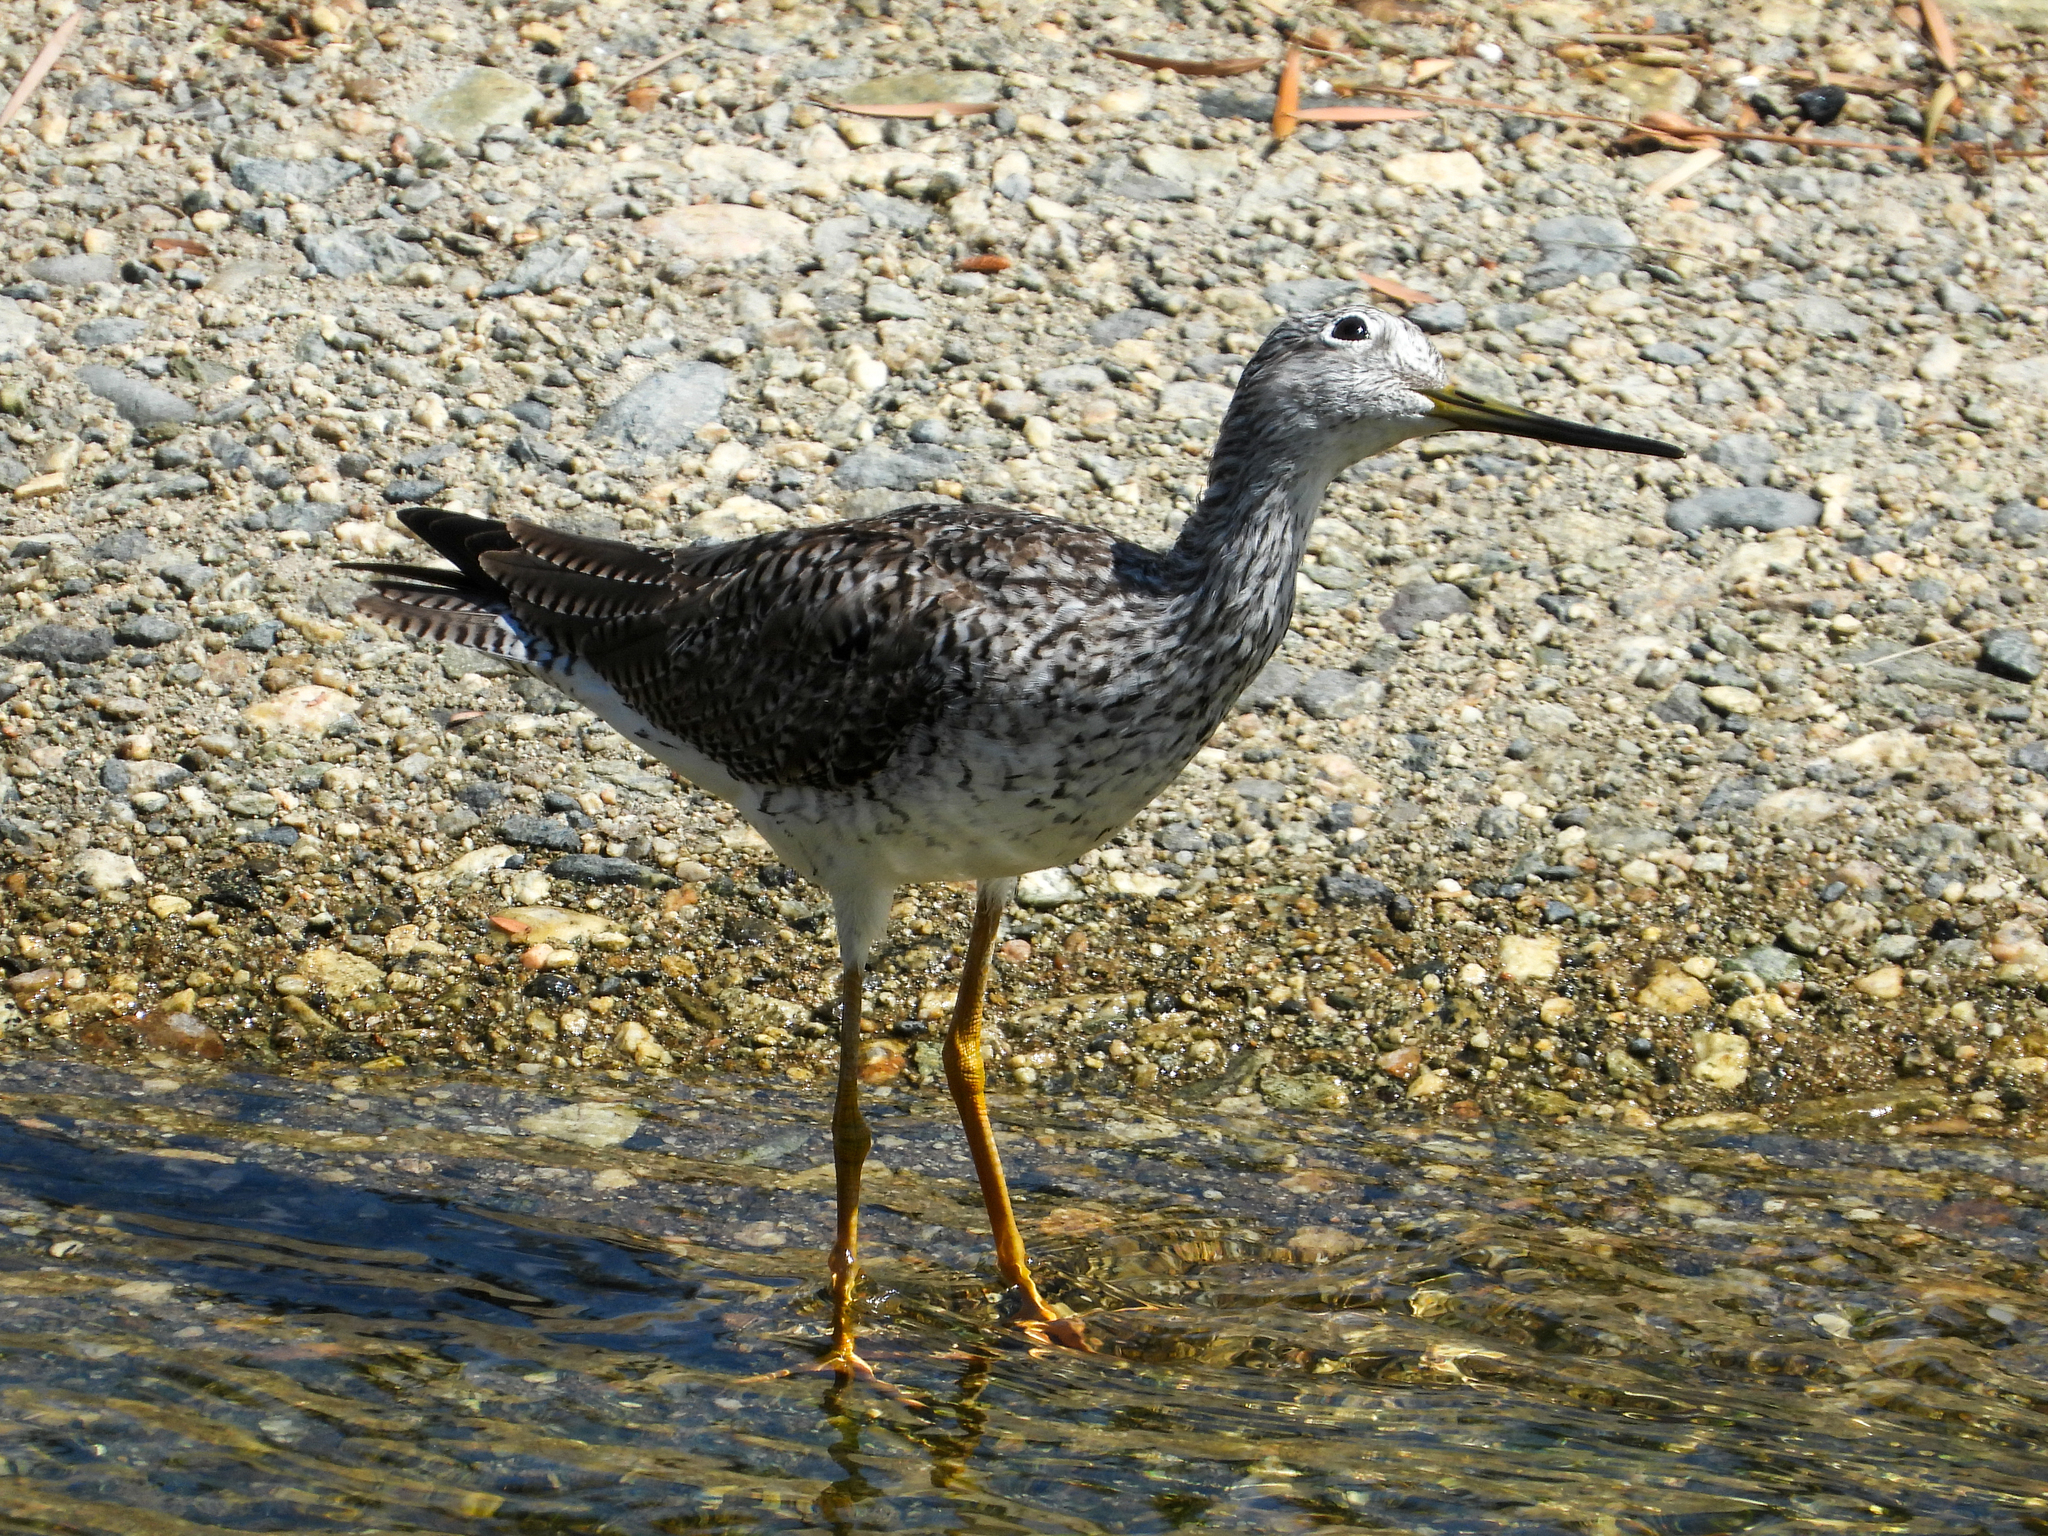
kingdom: Animalia
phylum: Chordata
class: Aves
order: Charadriiformes
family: Scolopacidae
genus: Tringa
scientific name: Tringa melanoleuca
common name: Greater yellowlegs
